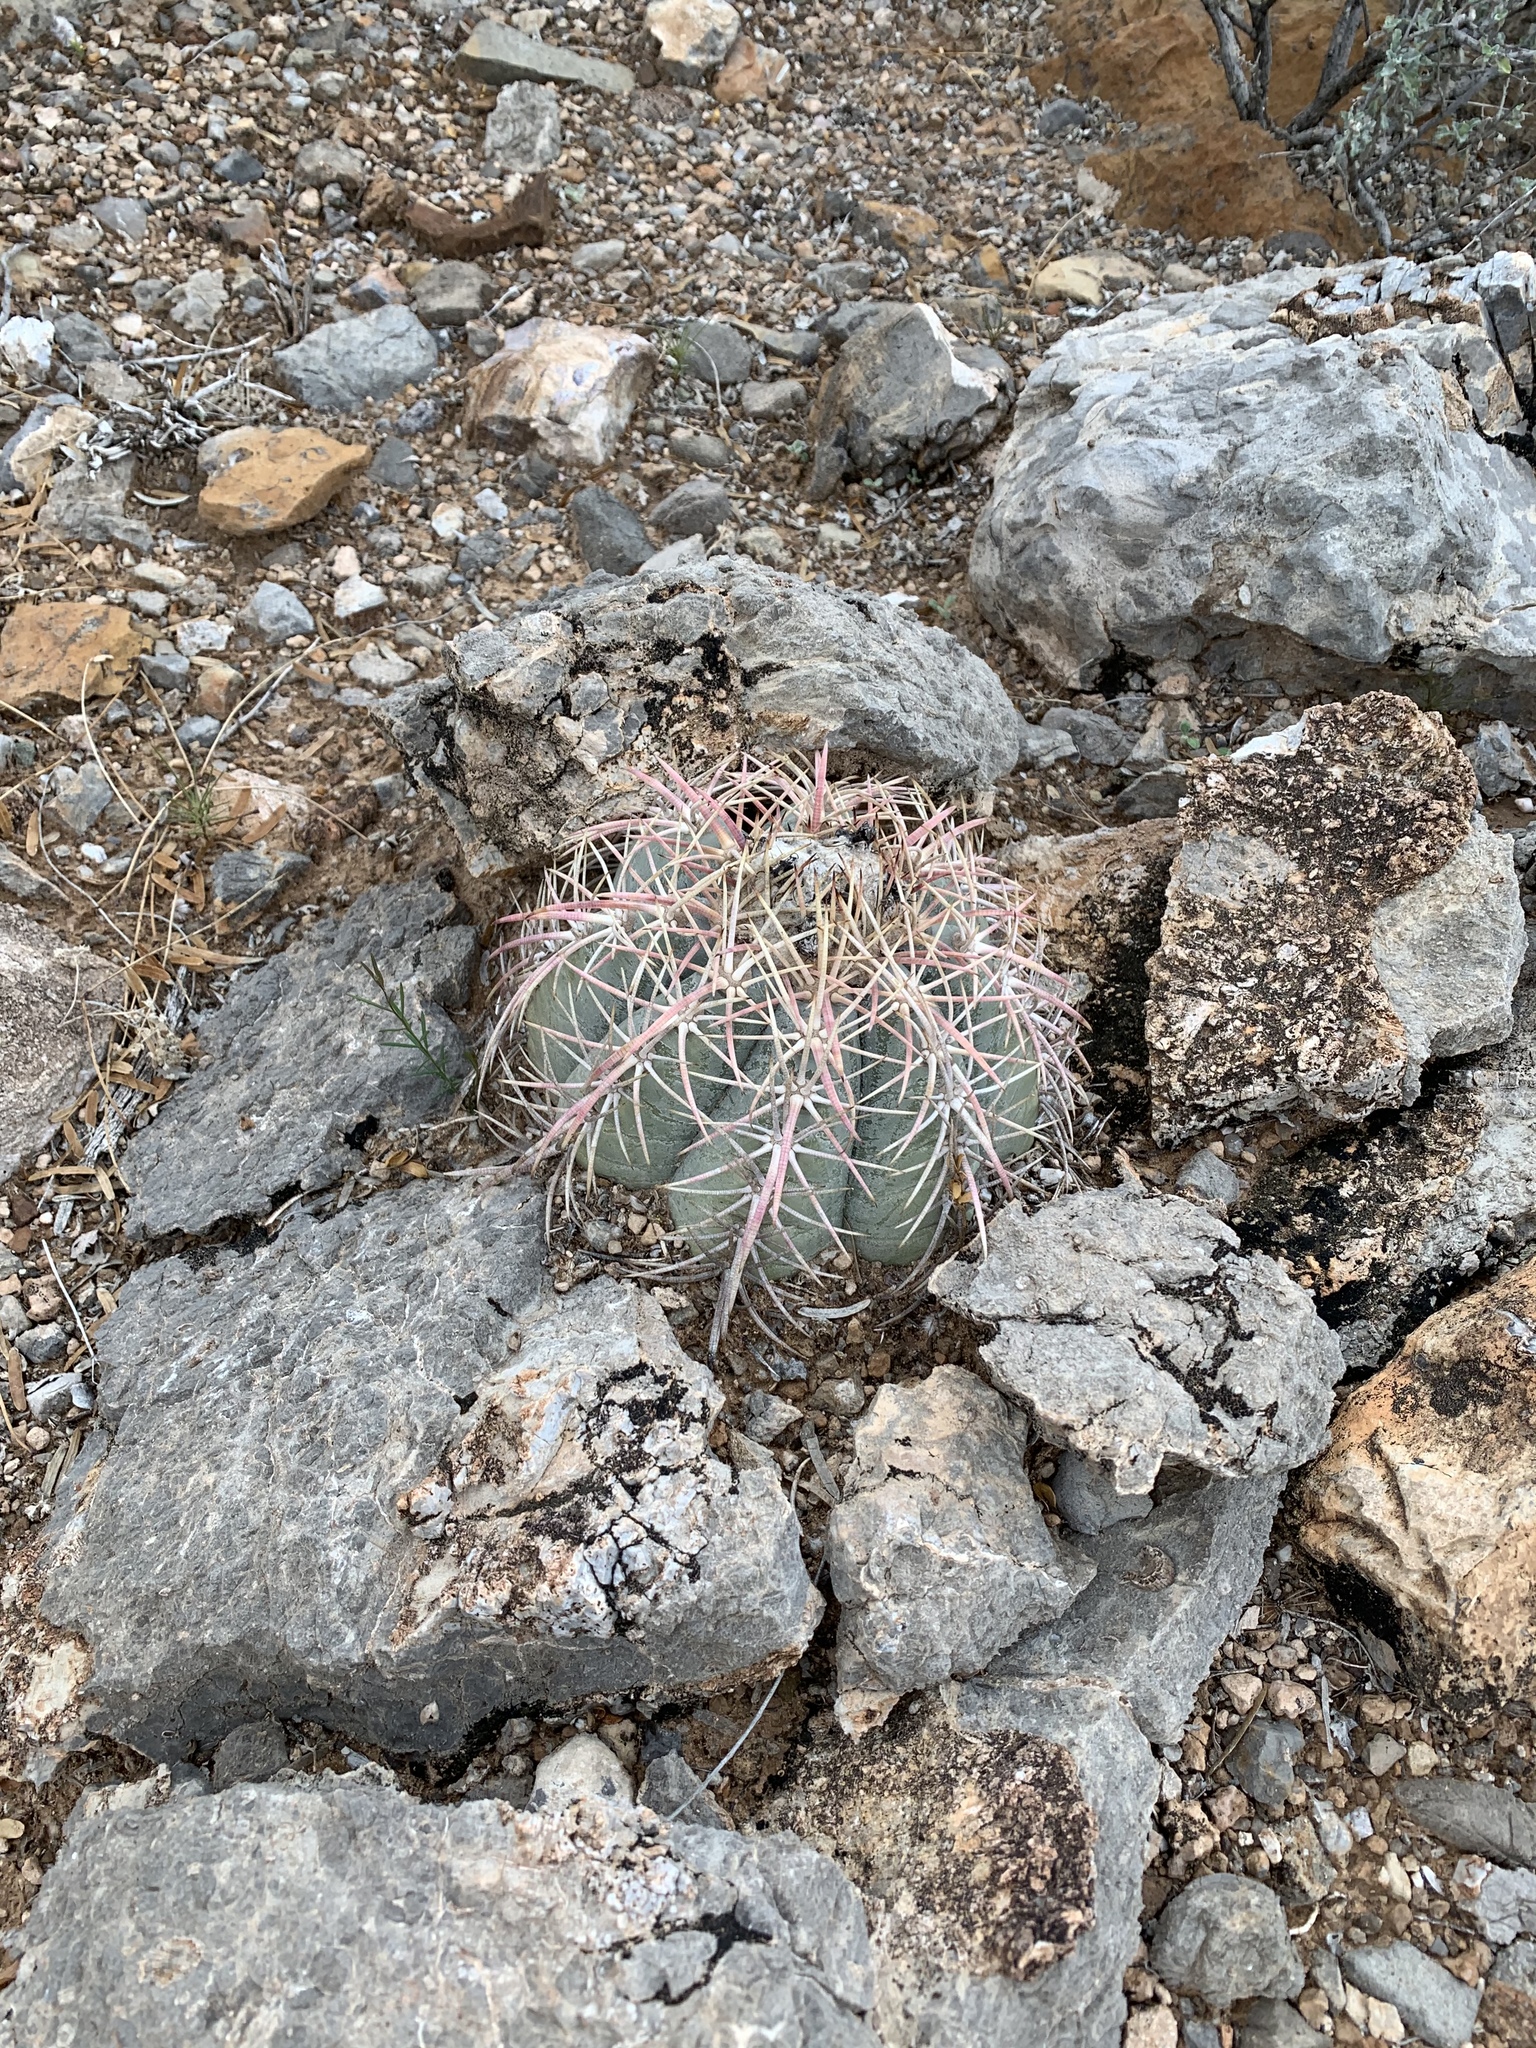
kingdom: Plantae
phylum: Tracheophyta
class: Magnoliopsida
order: Caryophyllales
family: Cactaceae
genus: Echinocactus
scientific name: Echinocactus horizonthalonius
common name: Devilshead
